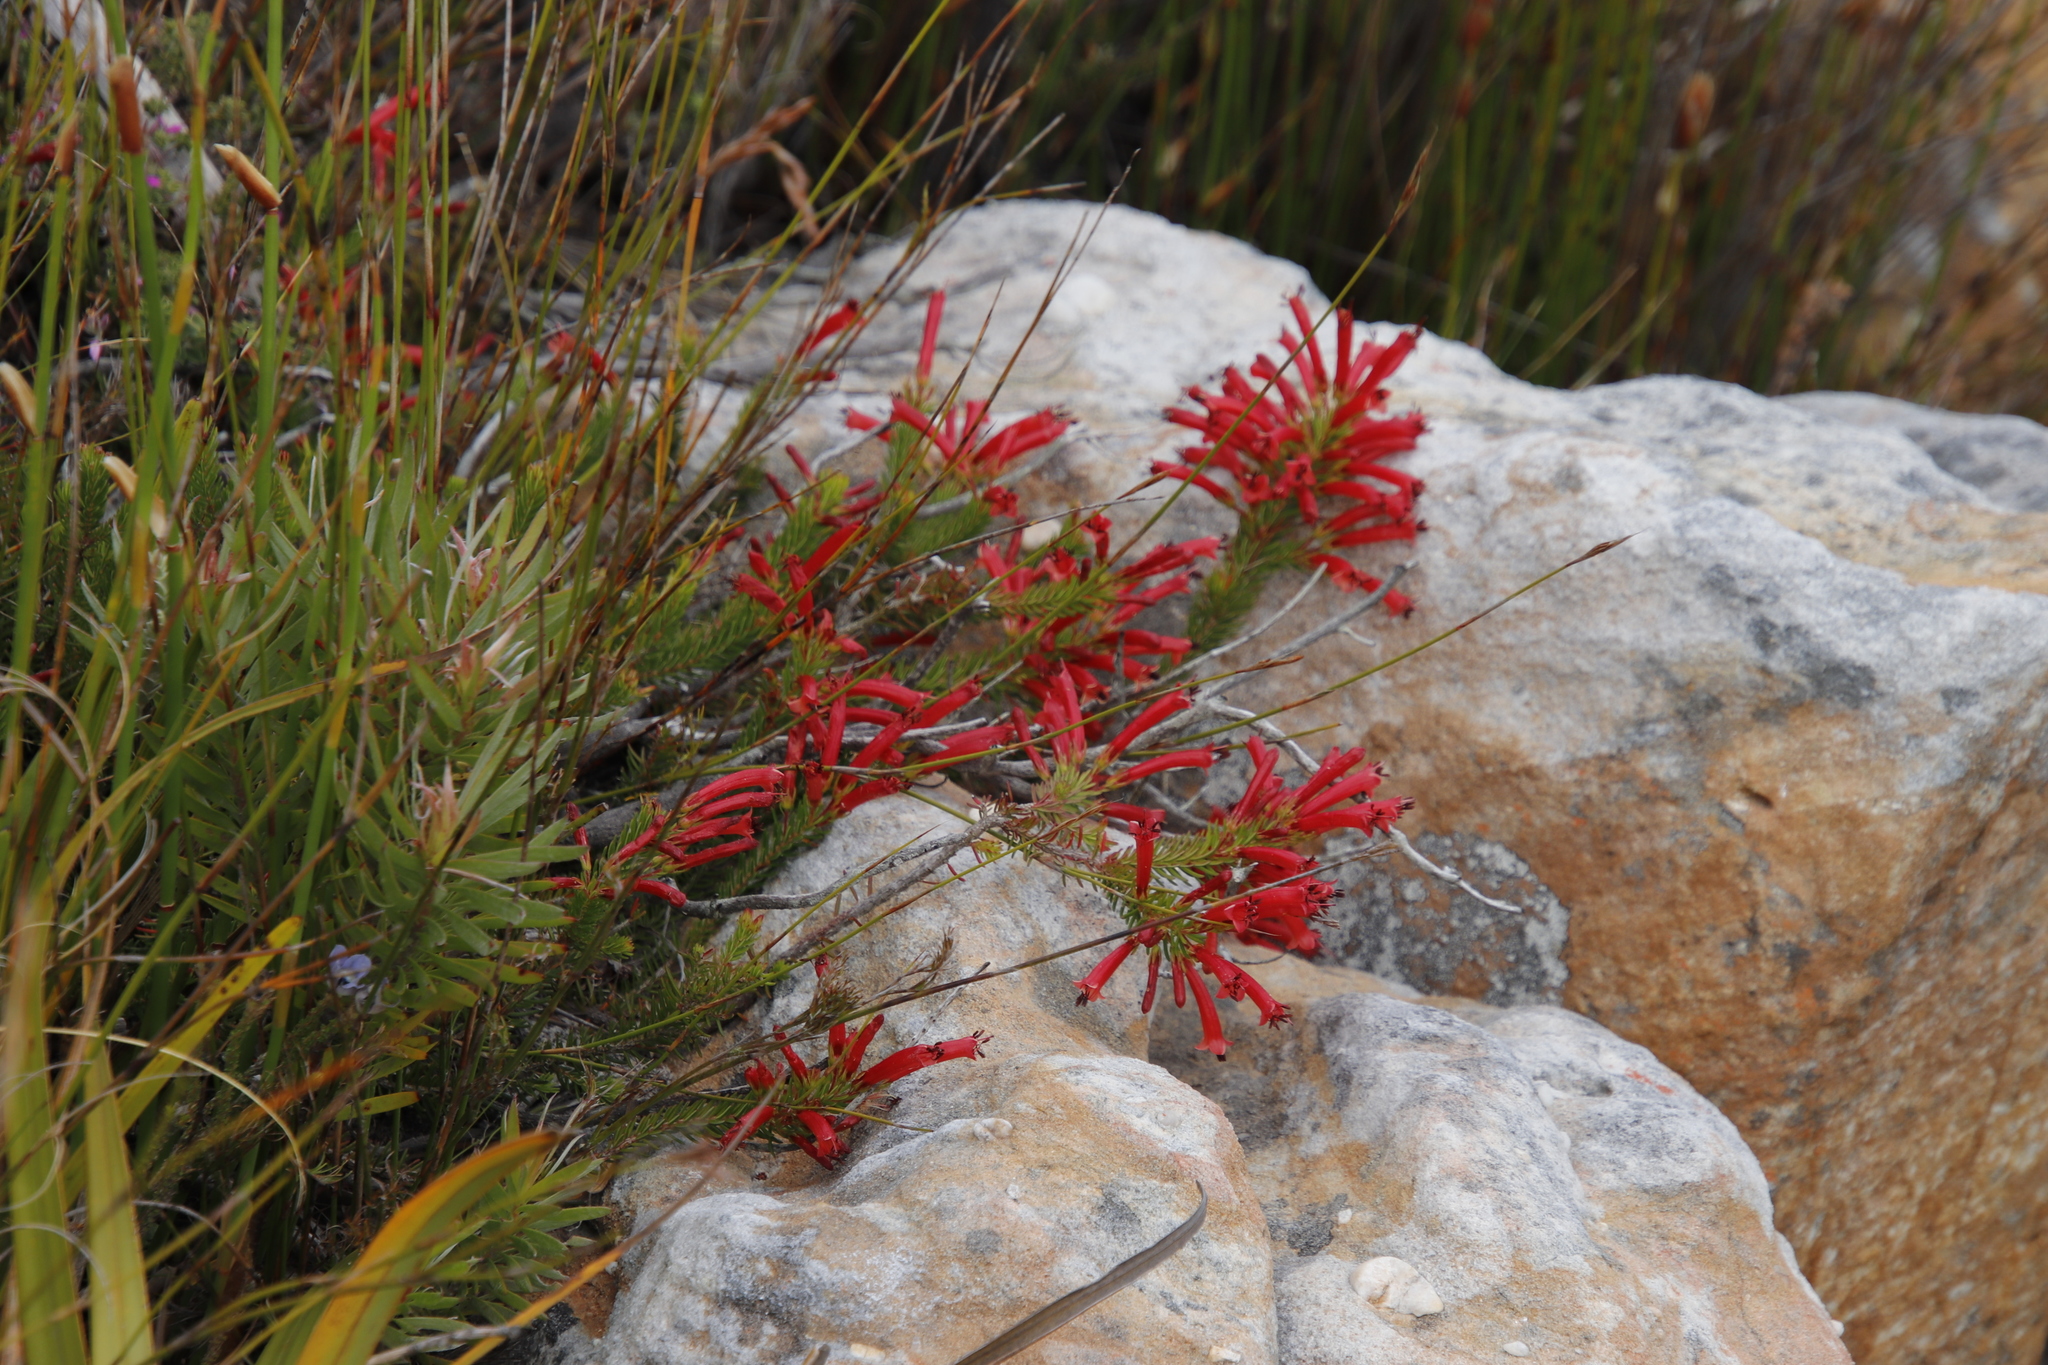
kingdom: Plantae
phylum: Tracheophyta
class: Magnoliopsida
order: Ericales
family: Ericaceae
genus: Erica
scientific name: Erica nevillei
